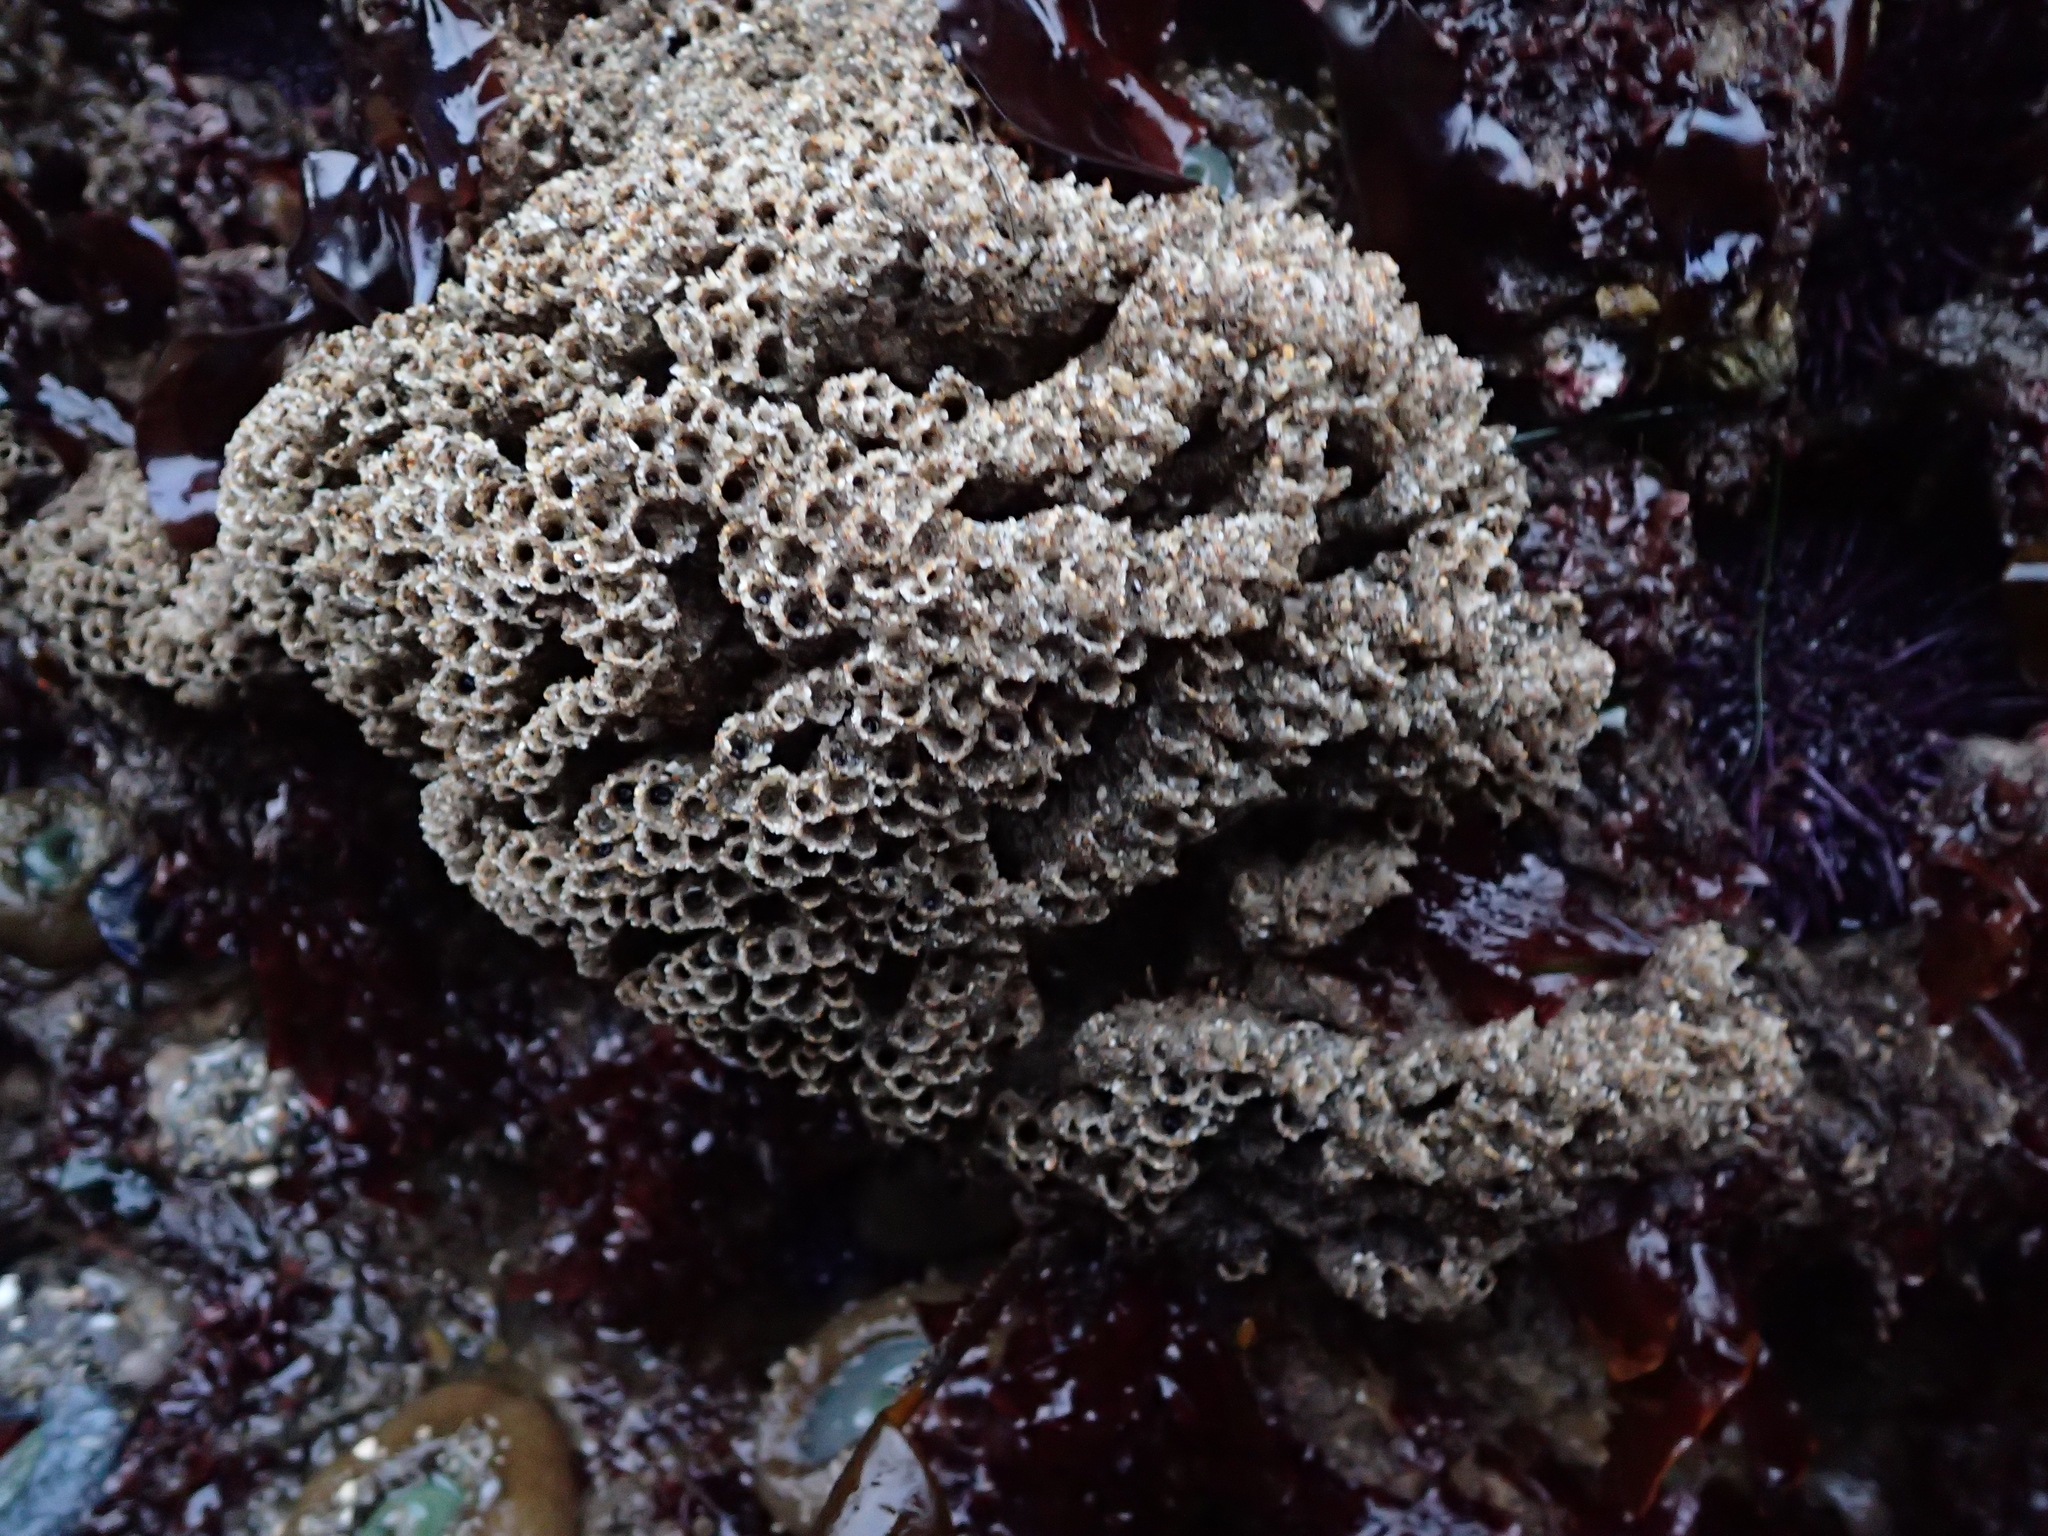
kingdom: Animalia
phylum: Annelida
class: Polychaeta
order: Sabellida
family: Sabellariidae
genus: Phragmatopoma
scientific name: Phragmatopoma californica
